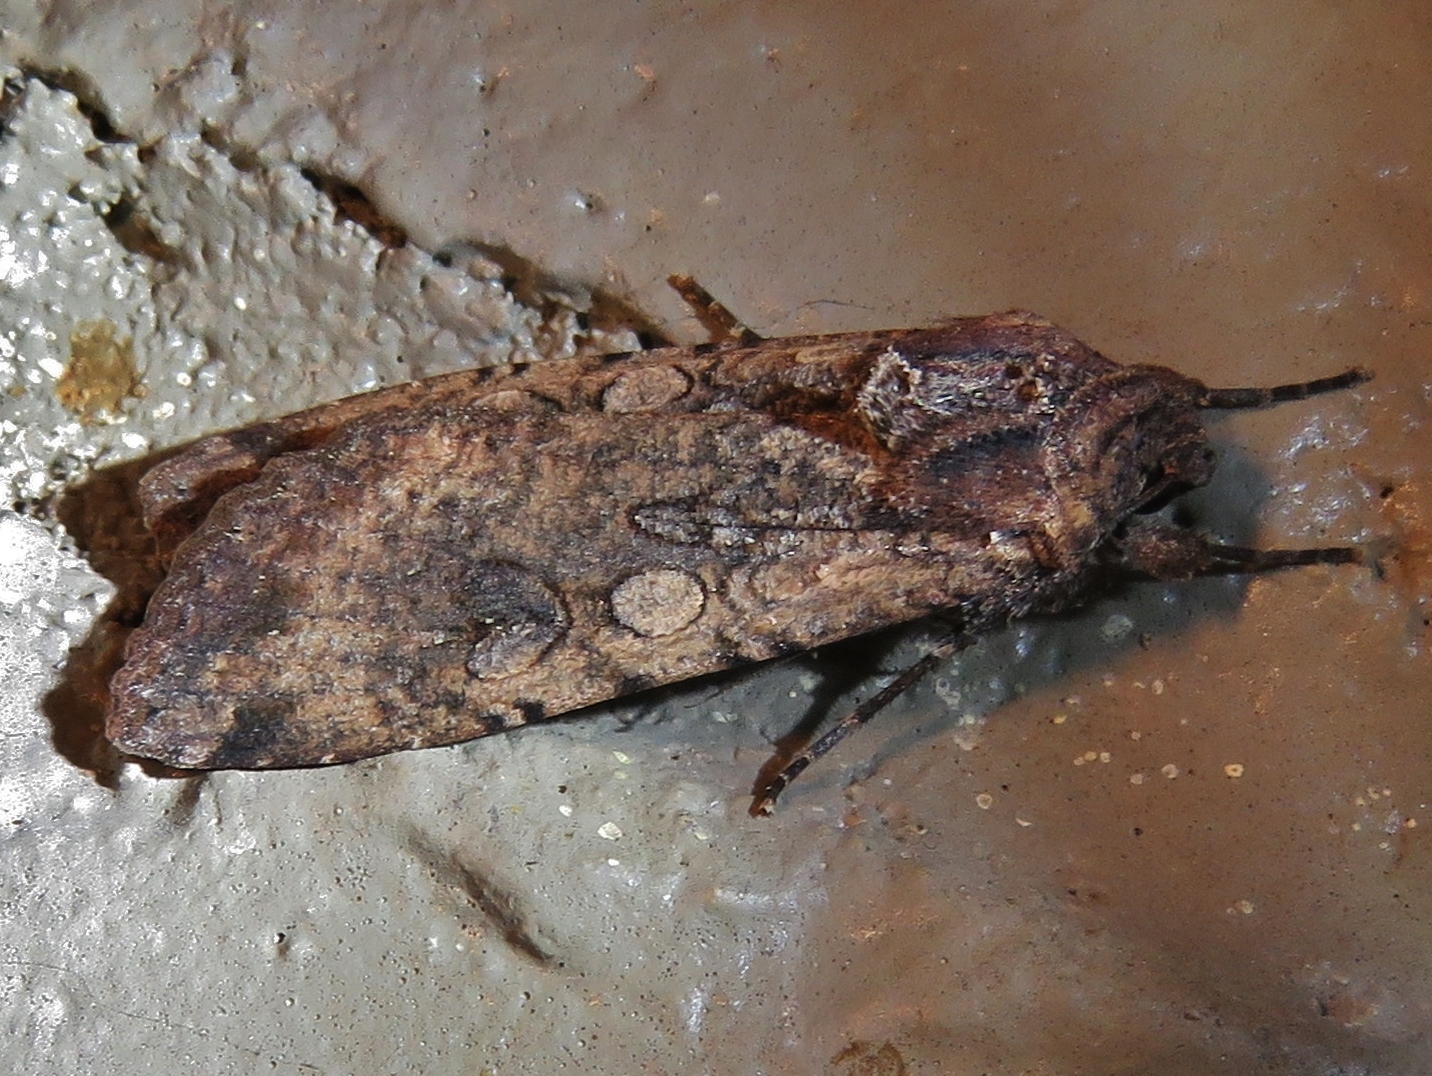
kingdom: Animalia
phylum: Arthropoda
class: Insecta
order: Lepidoptera
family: Noctuidae
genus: Peridroma
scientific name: Peridroma saucia
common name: Pearly underwing
